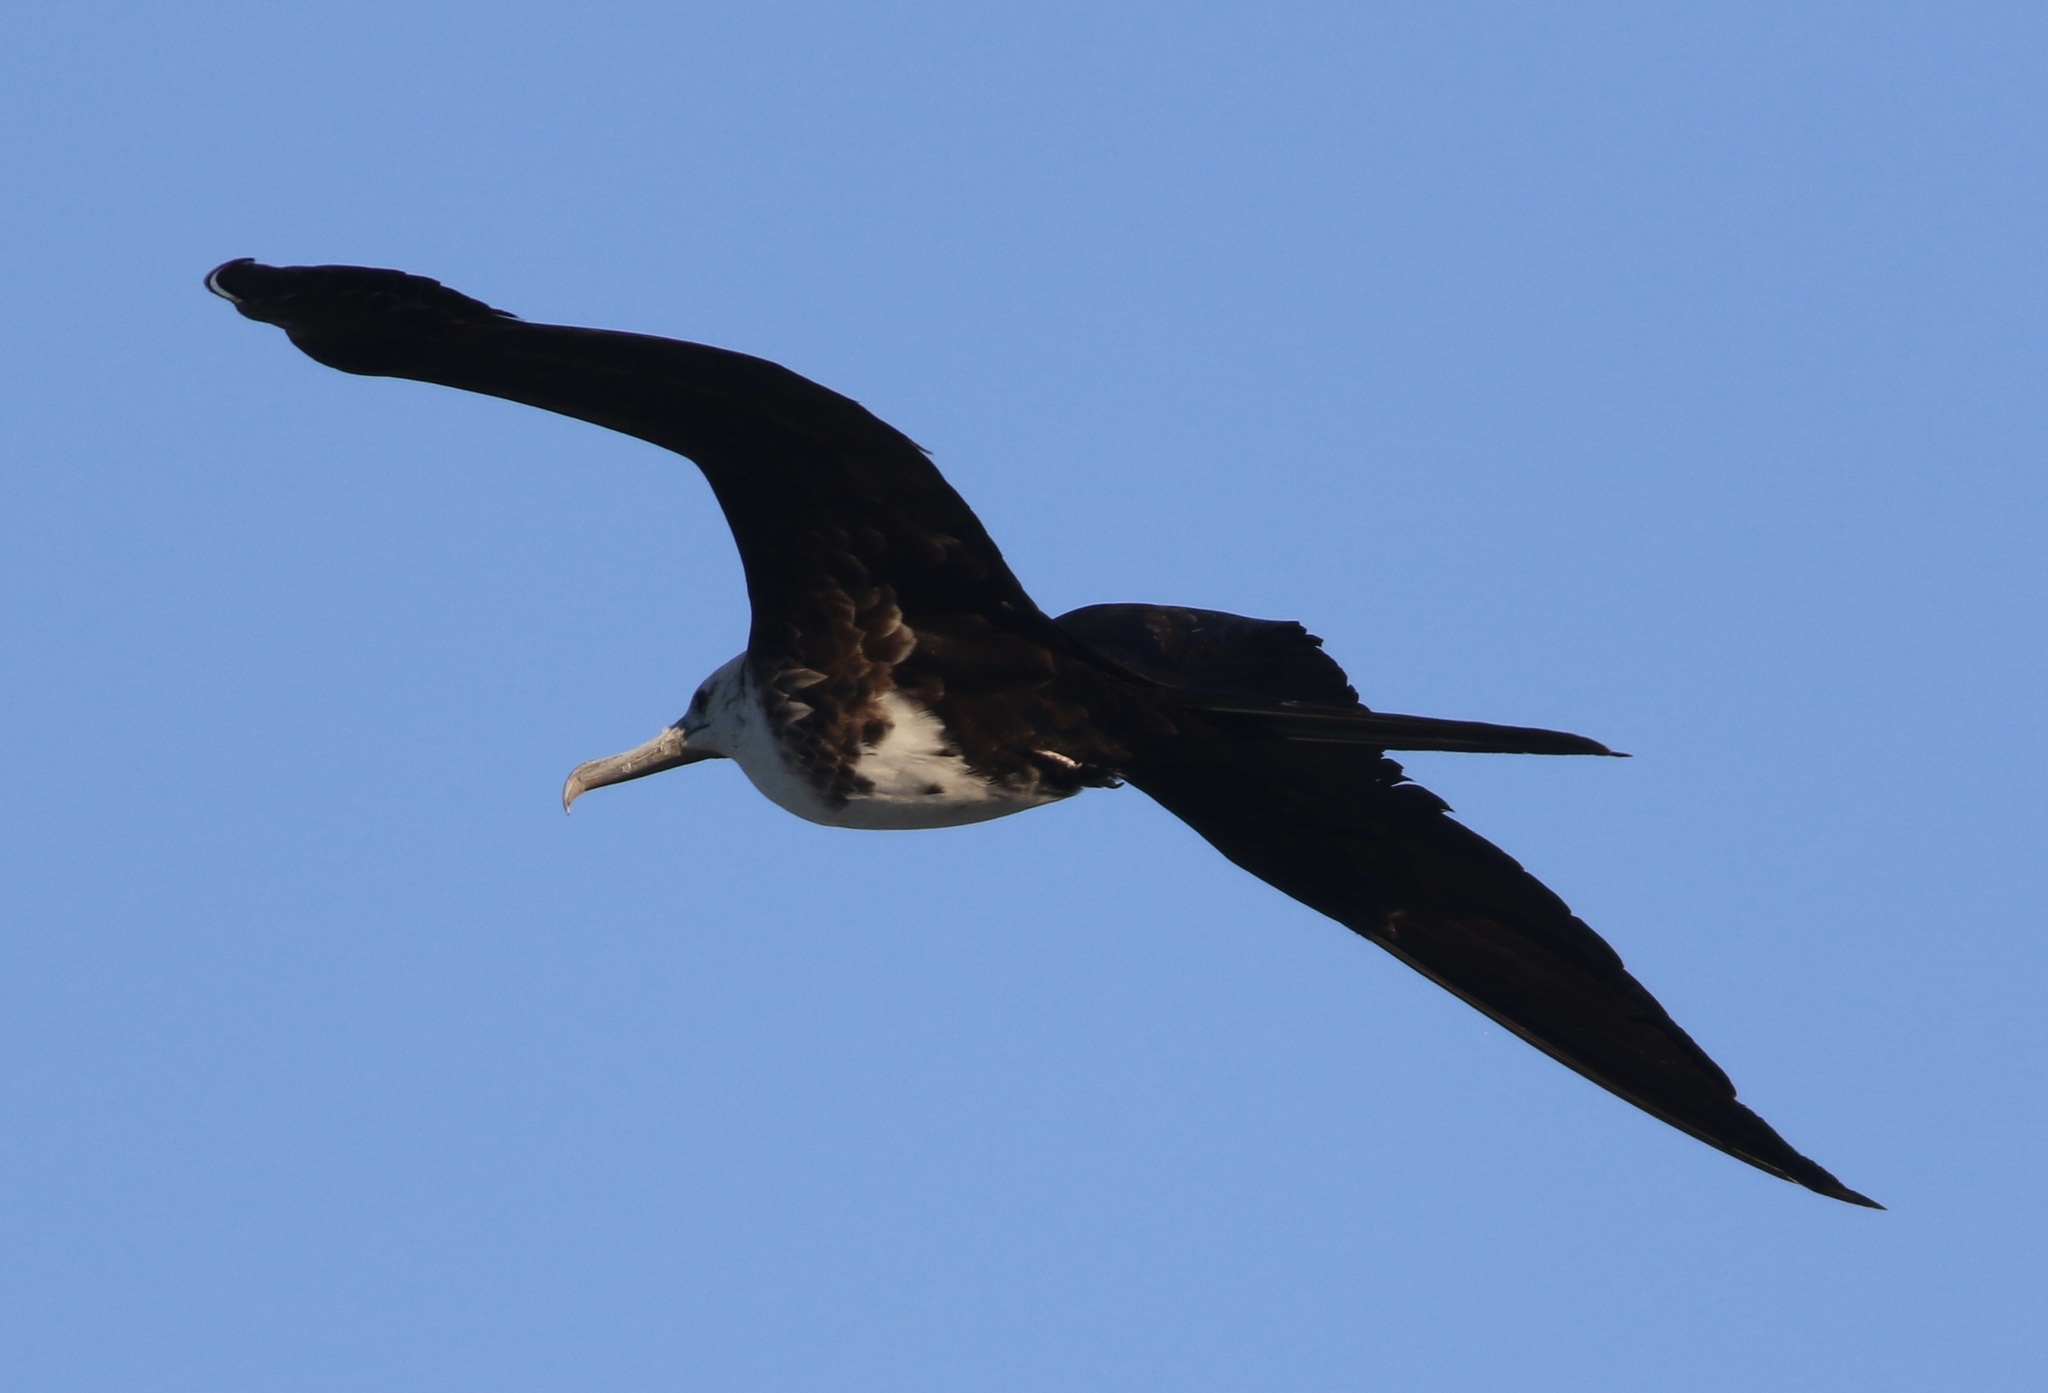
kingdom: Animalia
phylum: Chordata
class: Aves
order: Suliformes
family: Fregatidae
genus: Fregata
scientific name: Fregata magnificens
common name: Magnificent frigatebird
